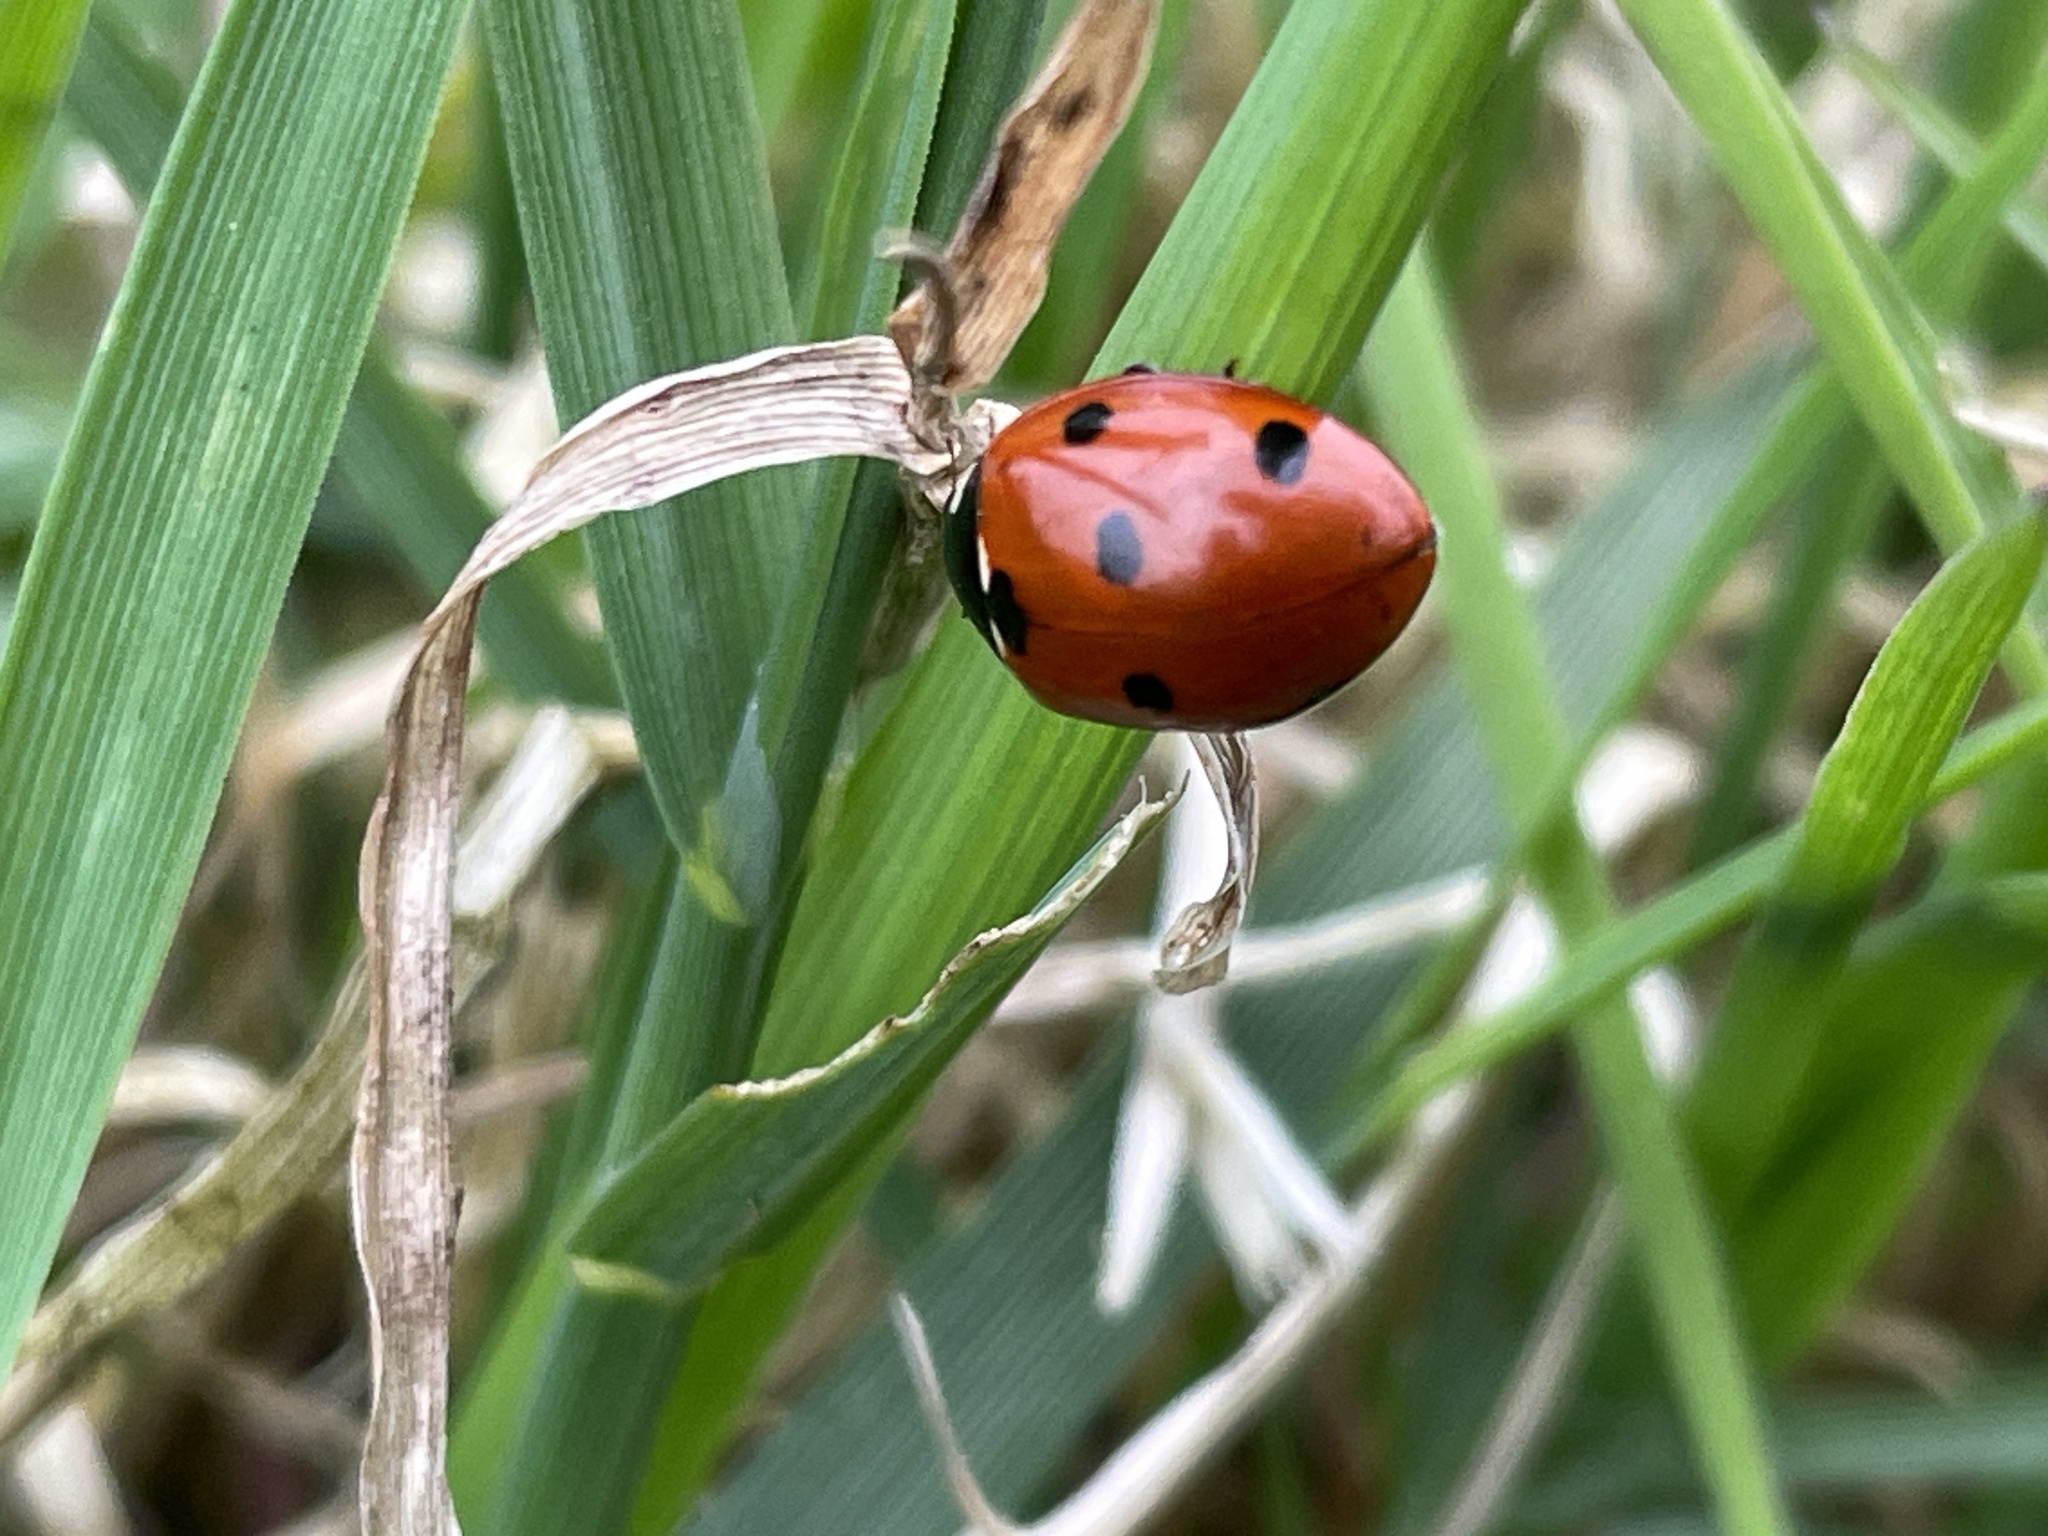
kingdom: Animalia
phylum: Arthropoda
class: Insecta
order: Coleoptera
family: Coccinellidae
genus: Coccinella
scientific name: Coccinella septempunctata
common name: Sevenspotted lady beetle
